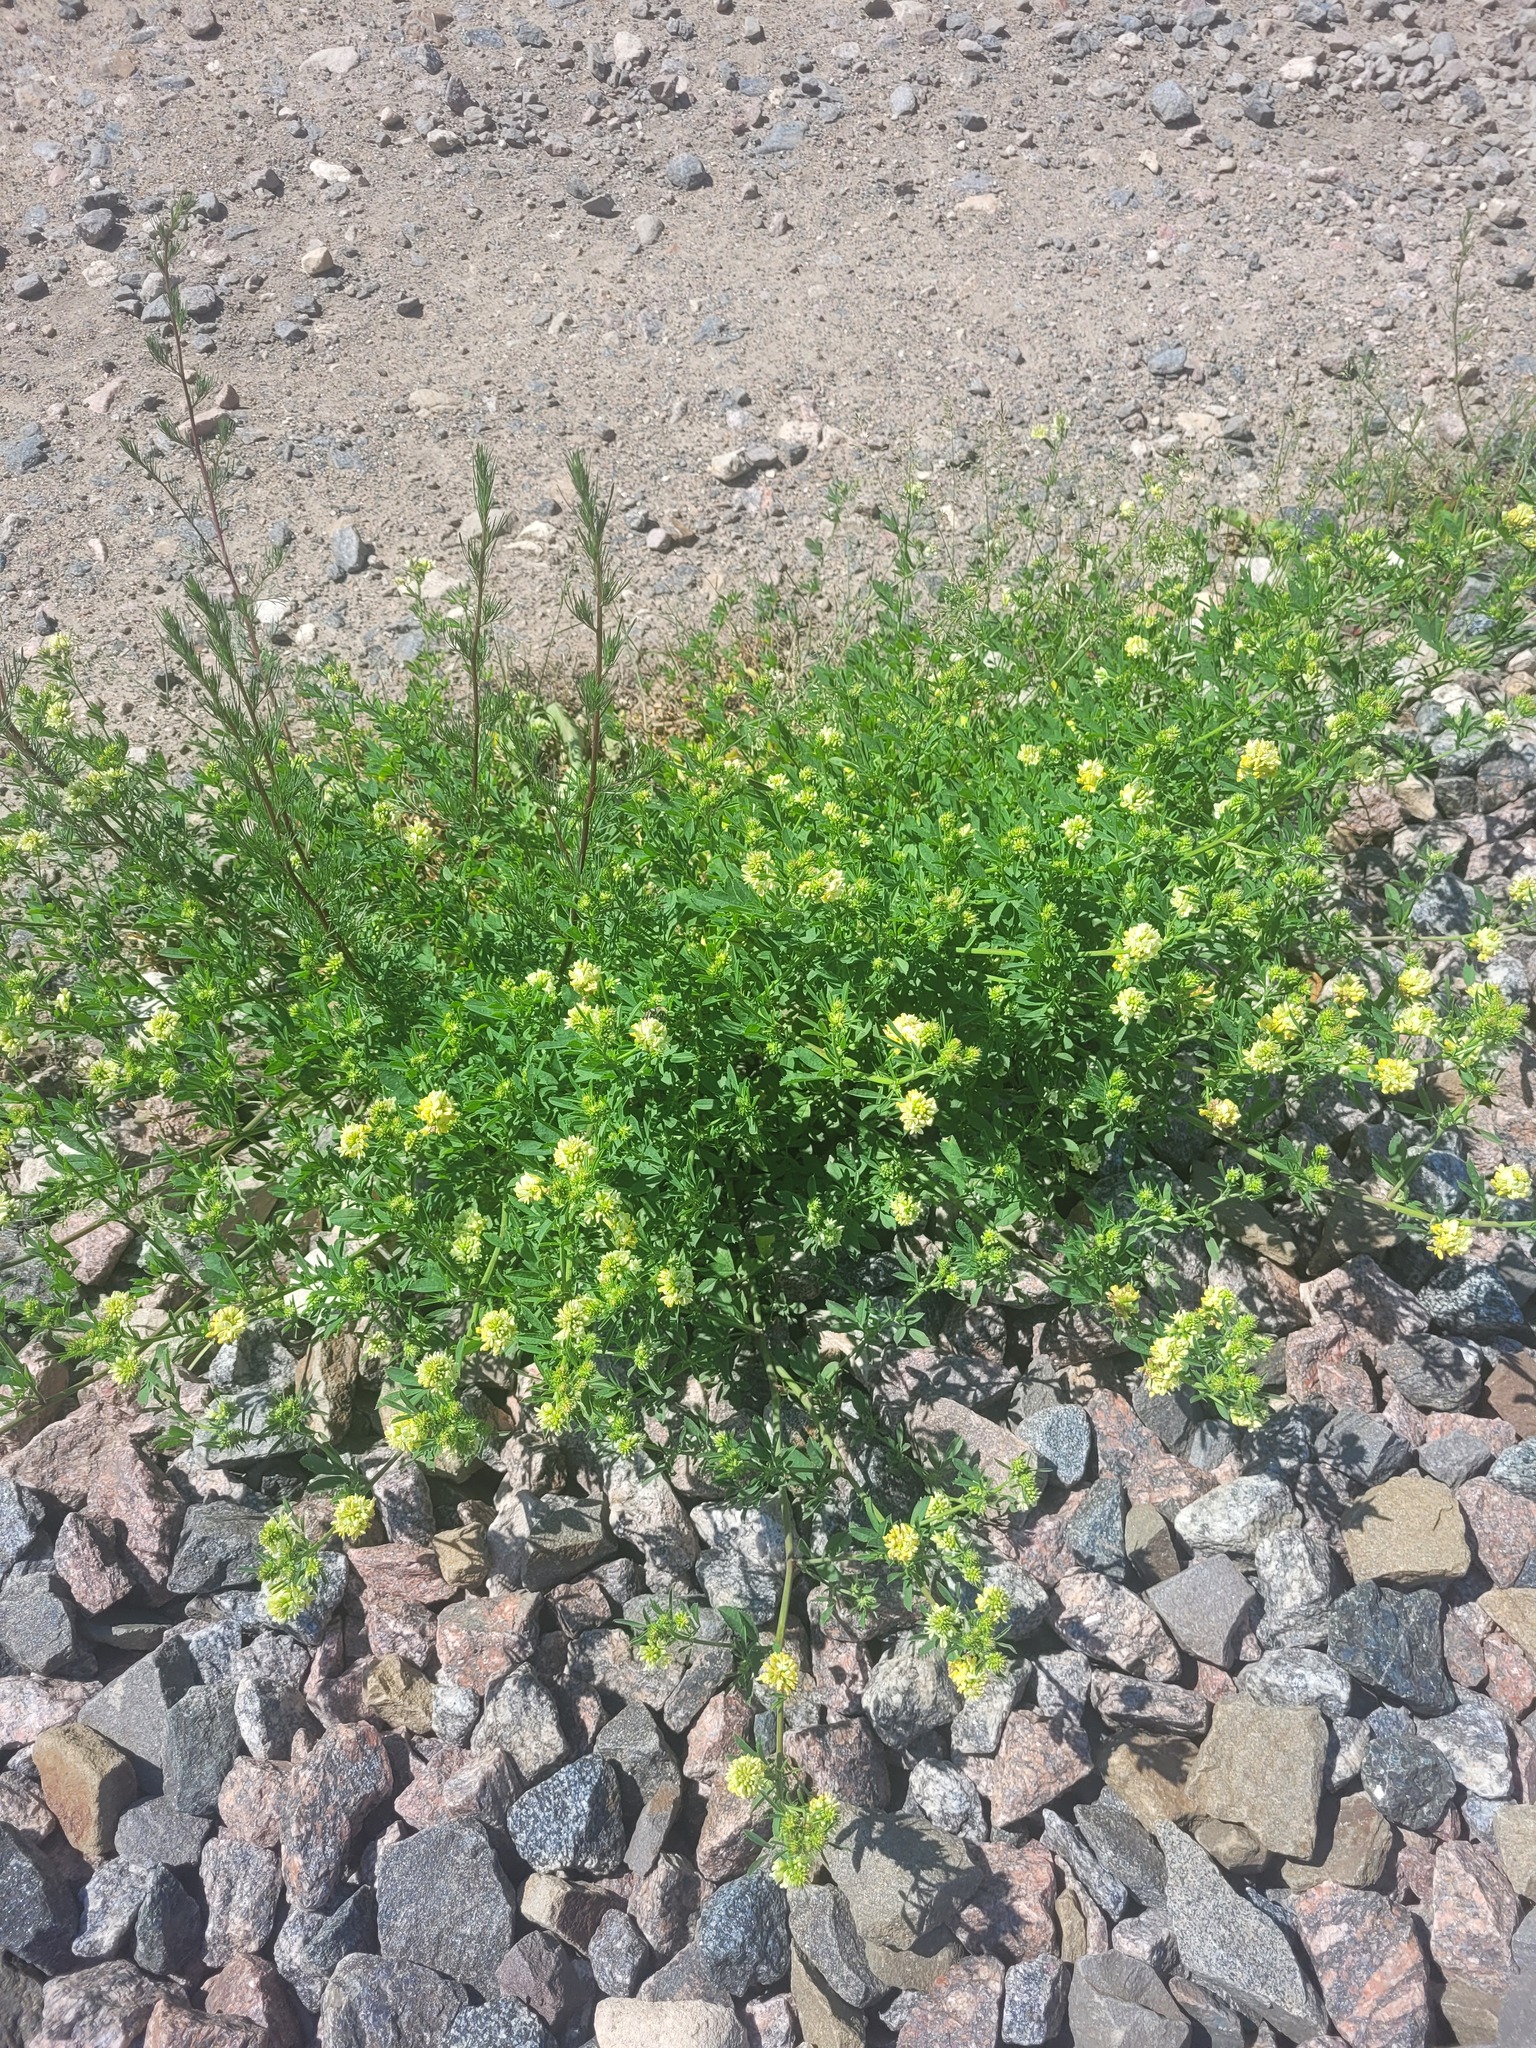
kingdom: Plantae
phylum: Tracheophyta
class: Magnoliopsida
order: Fabales
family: Fabaceae
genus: Medicago
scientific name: Medicago varia
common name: Sand lucerne
